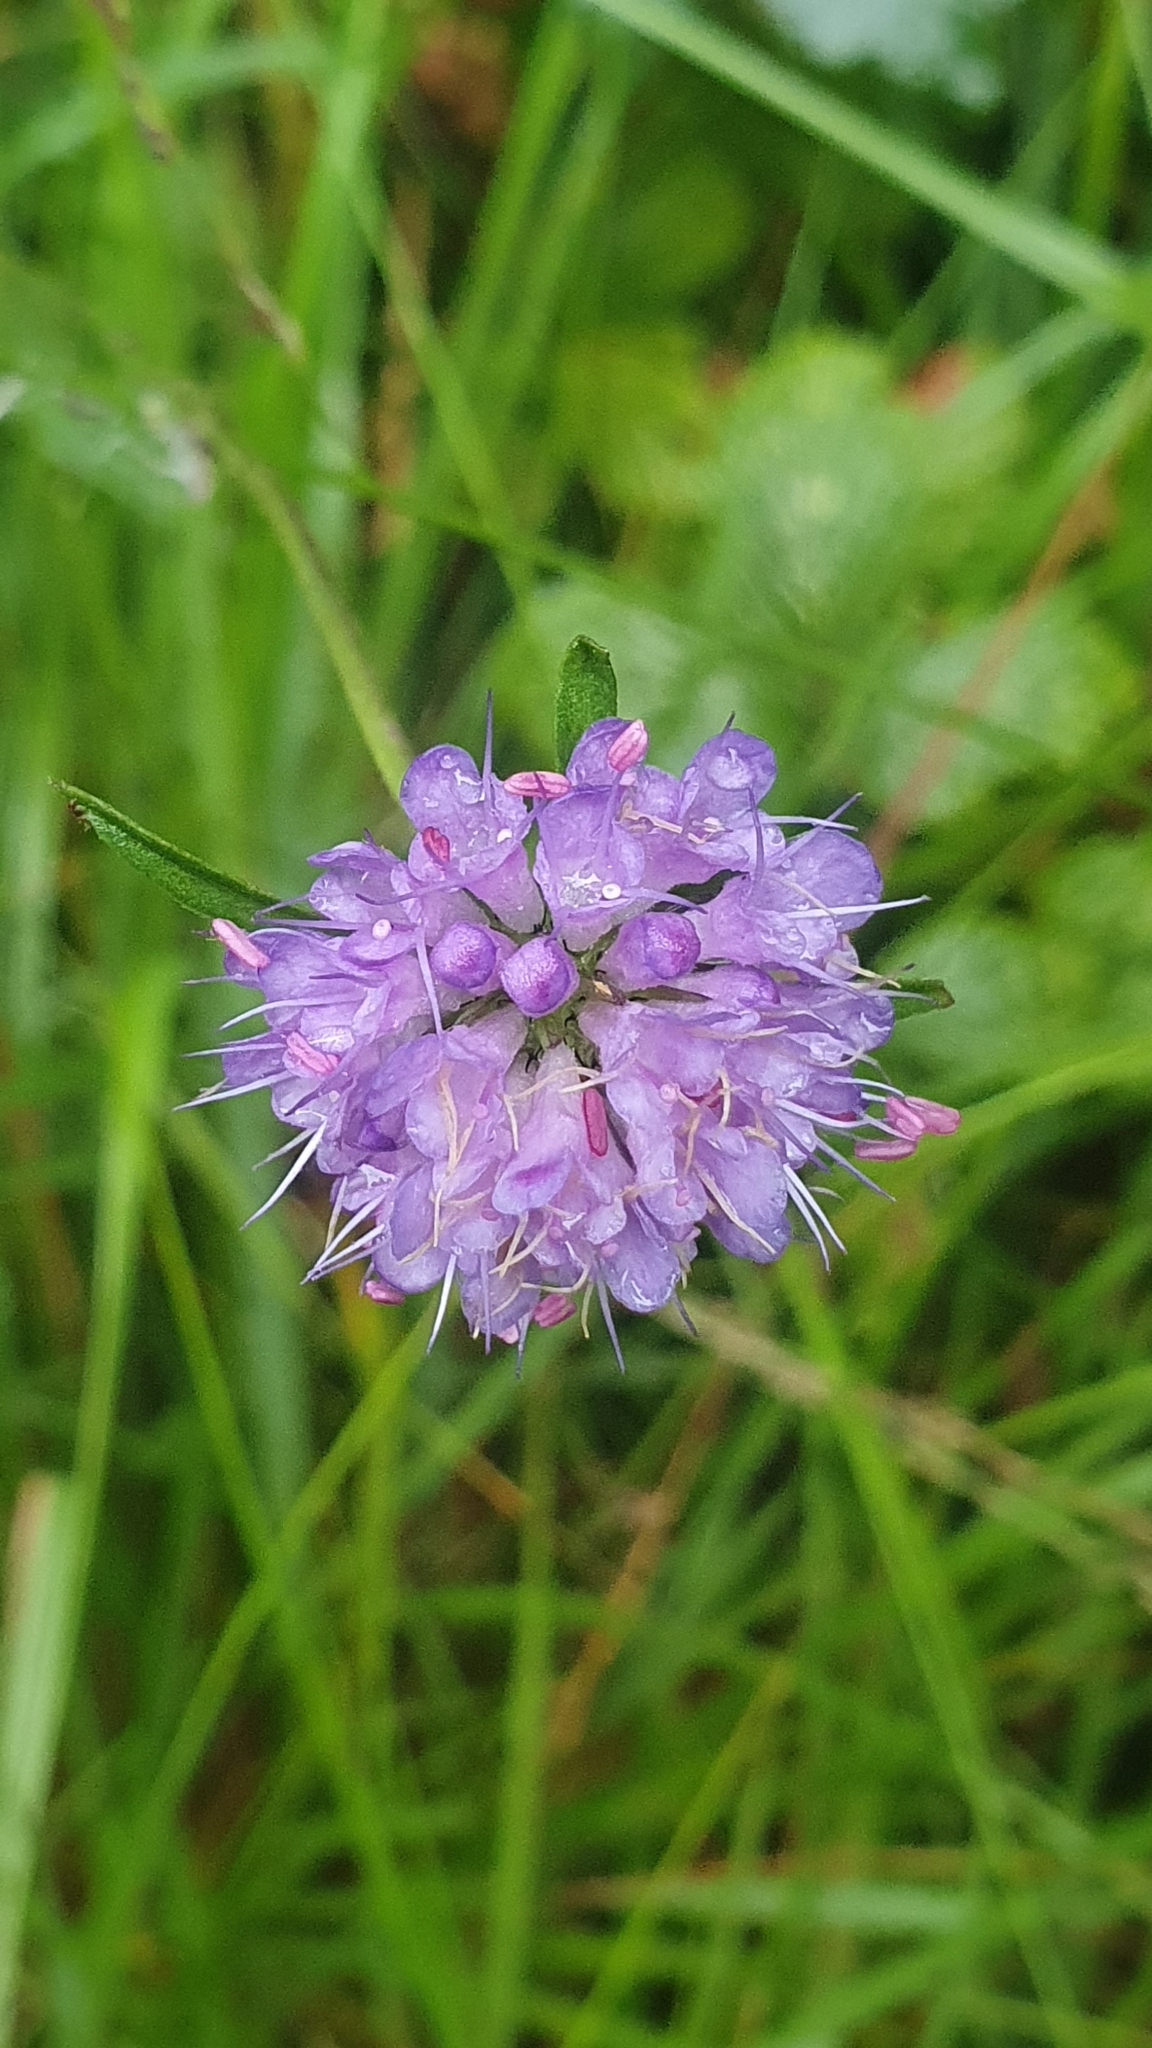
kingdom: Plantae
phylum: Tracheophyta
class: Magnoliopsida
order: Dipsacales
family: Caprifoliaceae
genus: Succisa
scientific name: Succisa pratensis
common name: Devil's-bit
